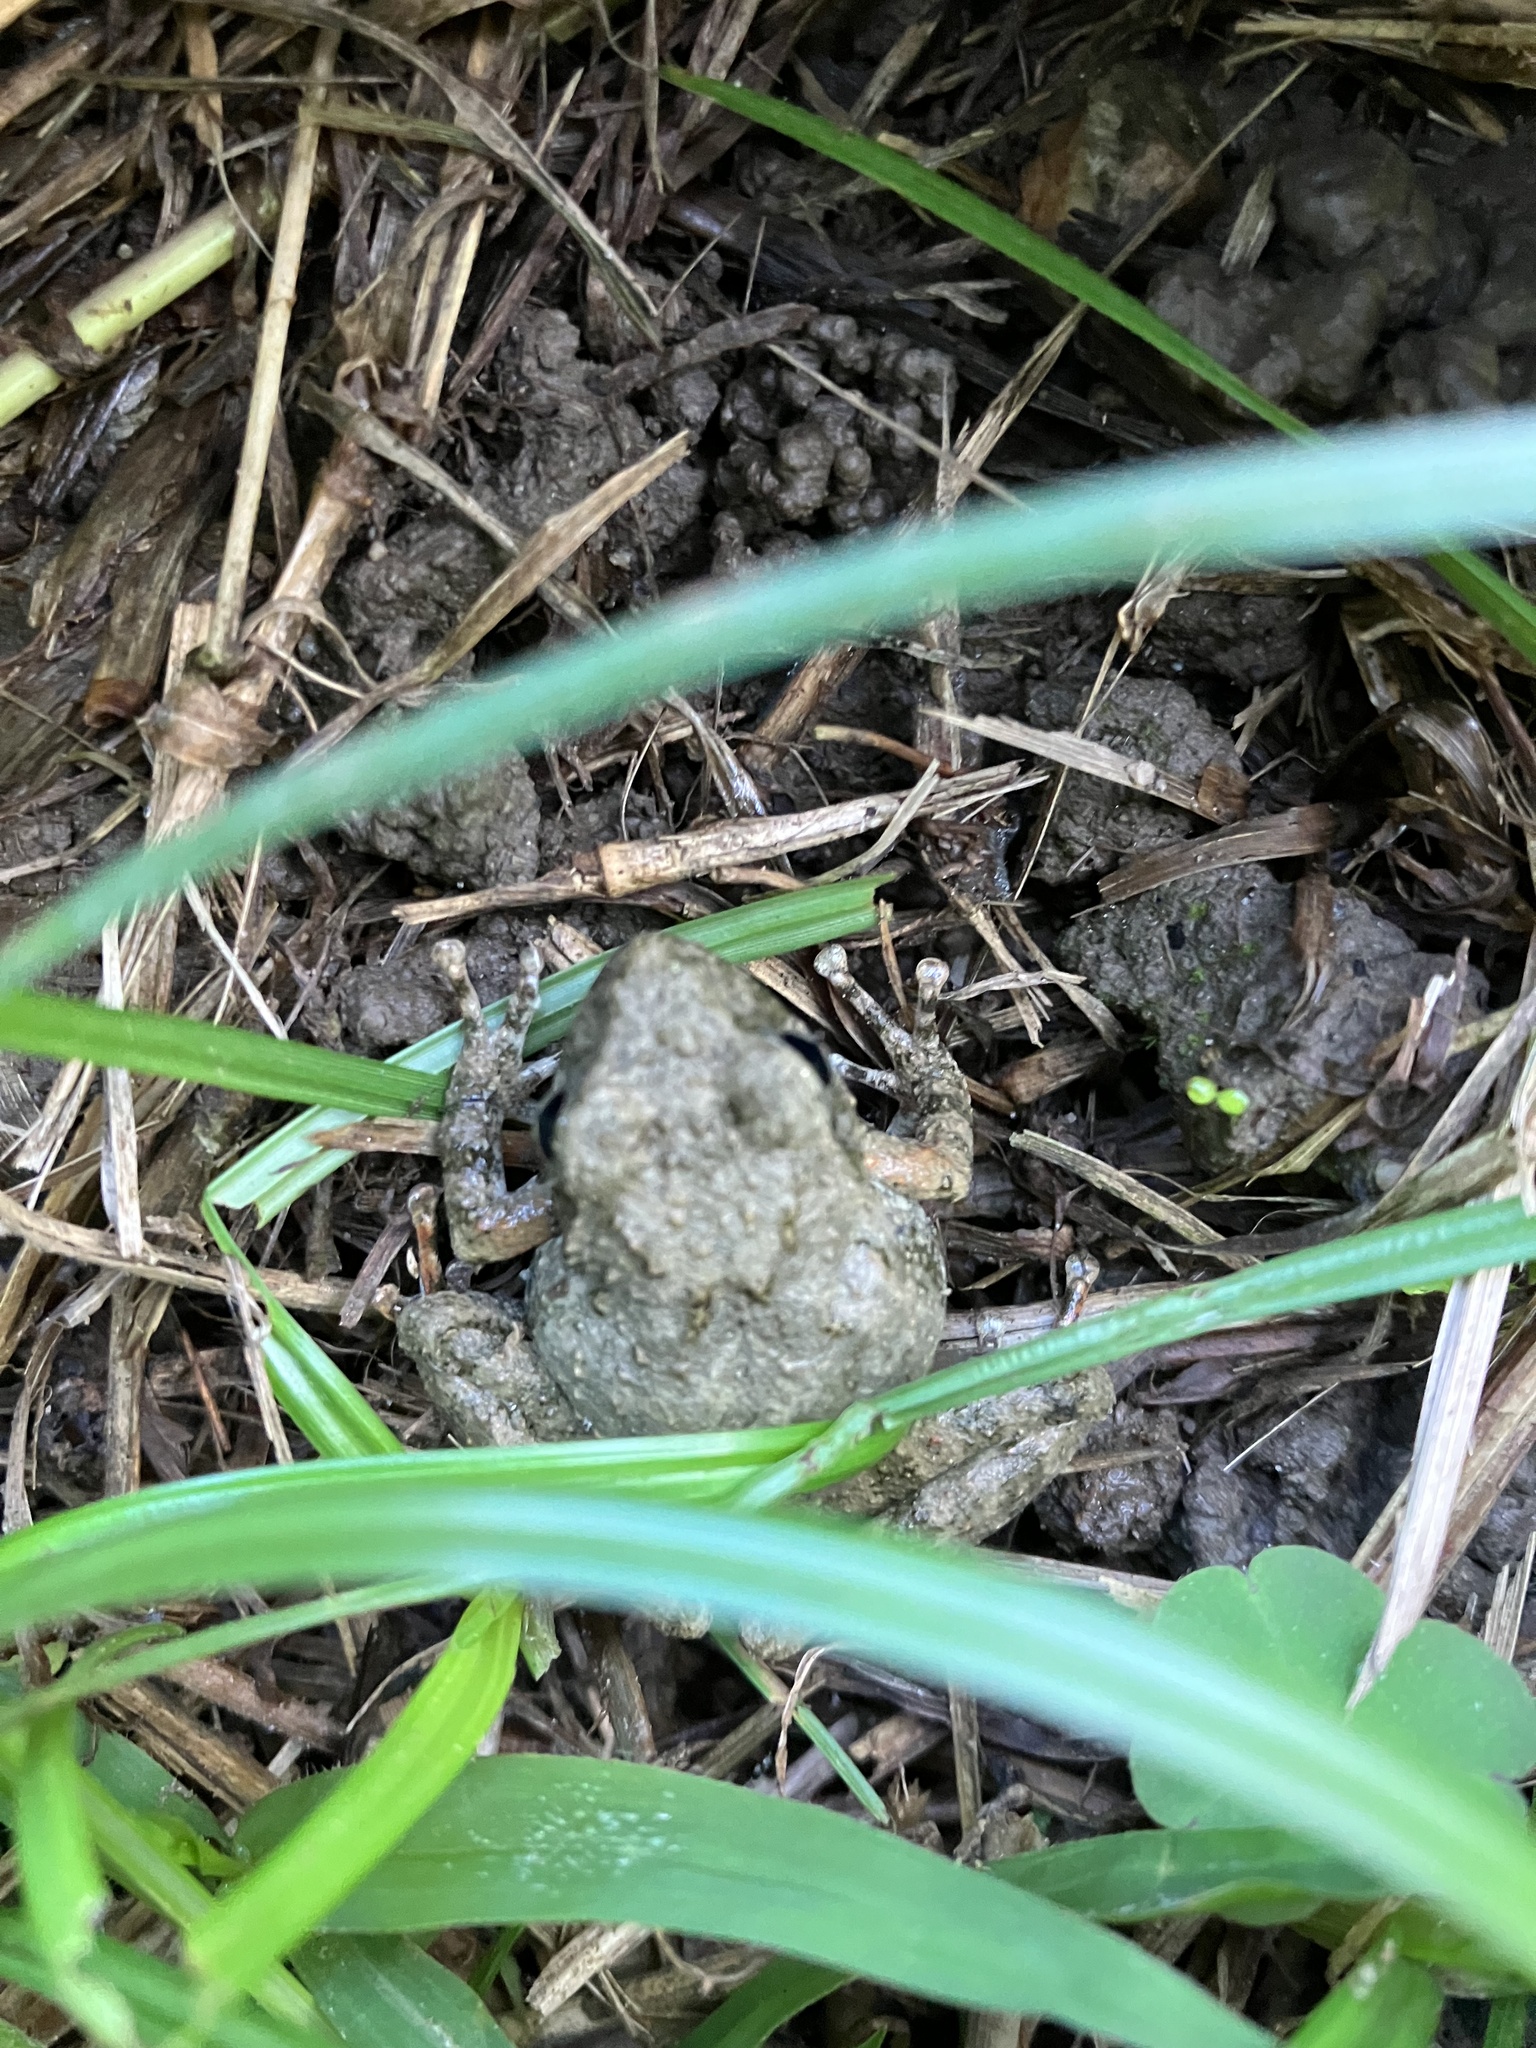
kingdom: Animalia
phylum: Chordata
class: Amphibia
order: Anura
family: Rhacophoridae
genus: Buergeria
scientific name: Buergeria otai
